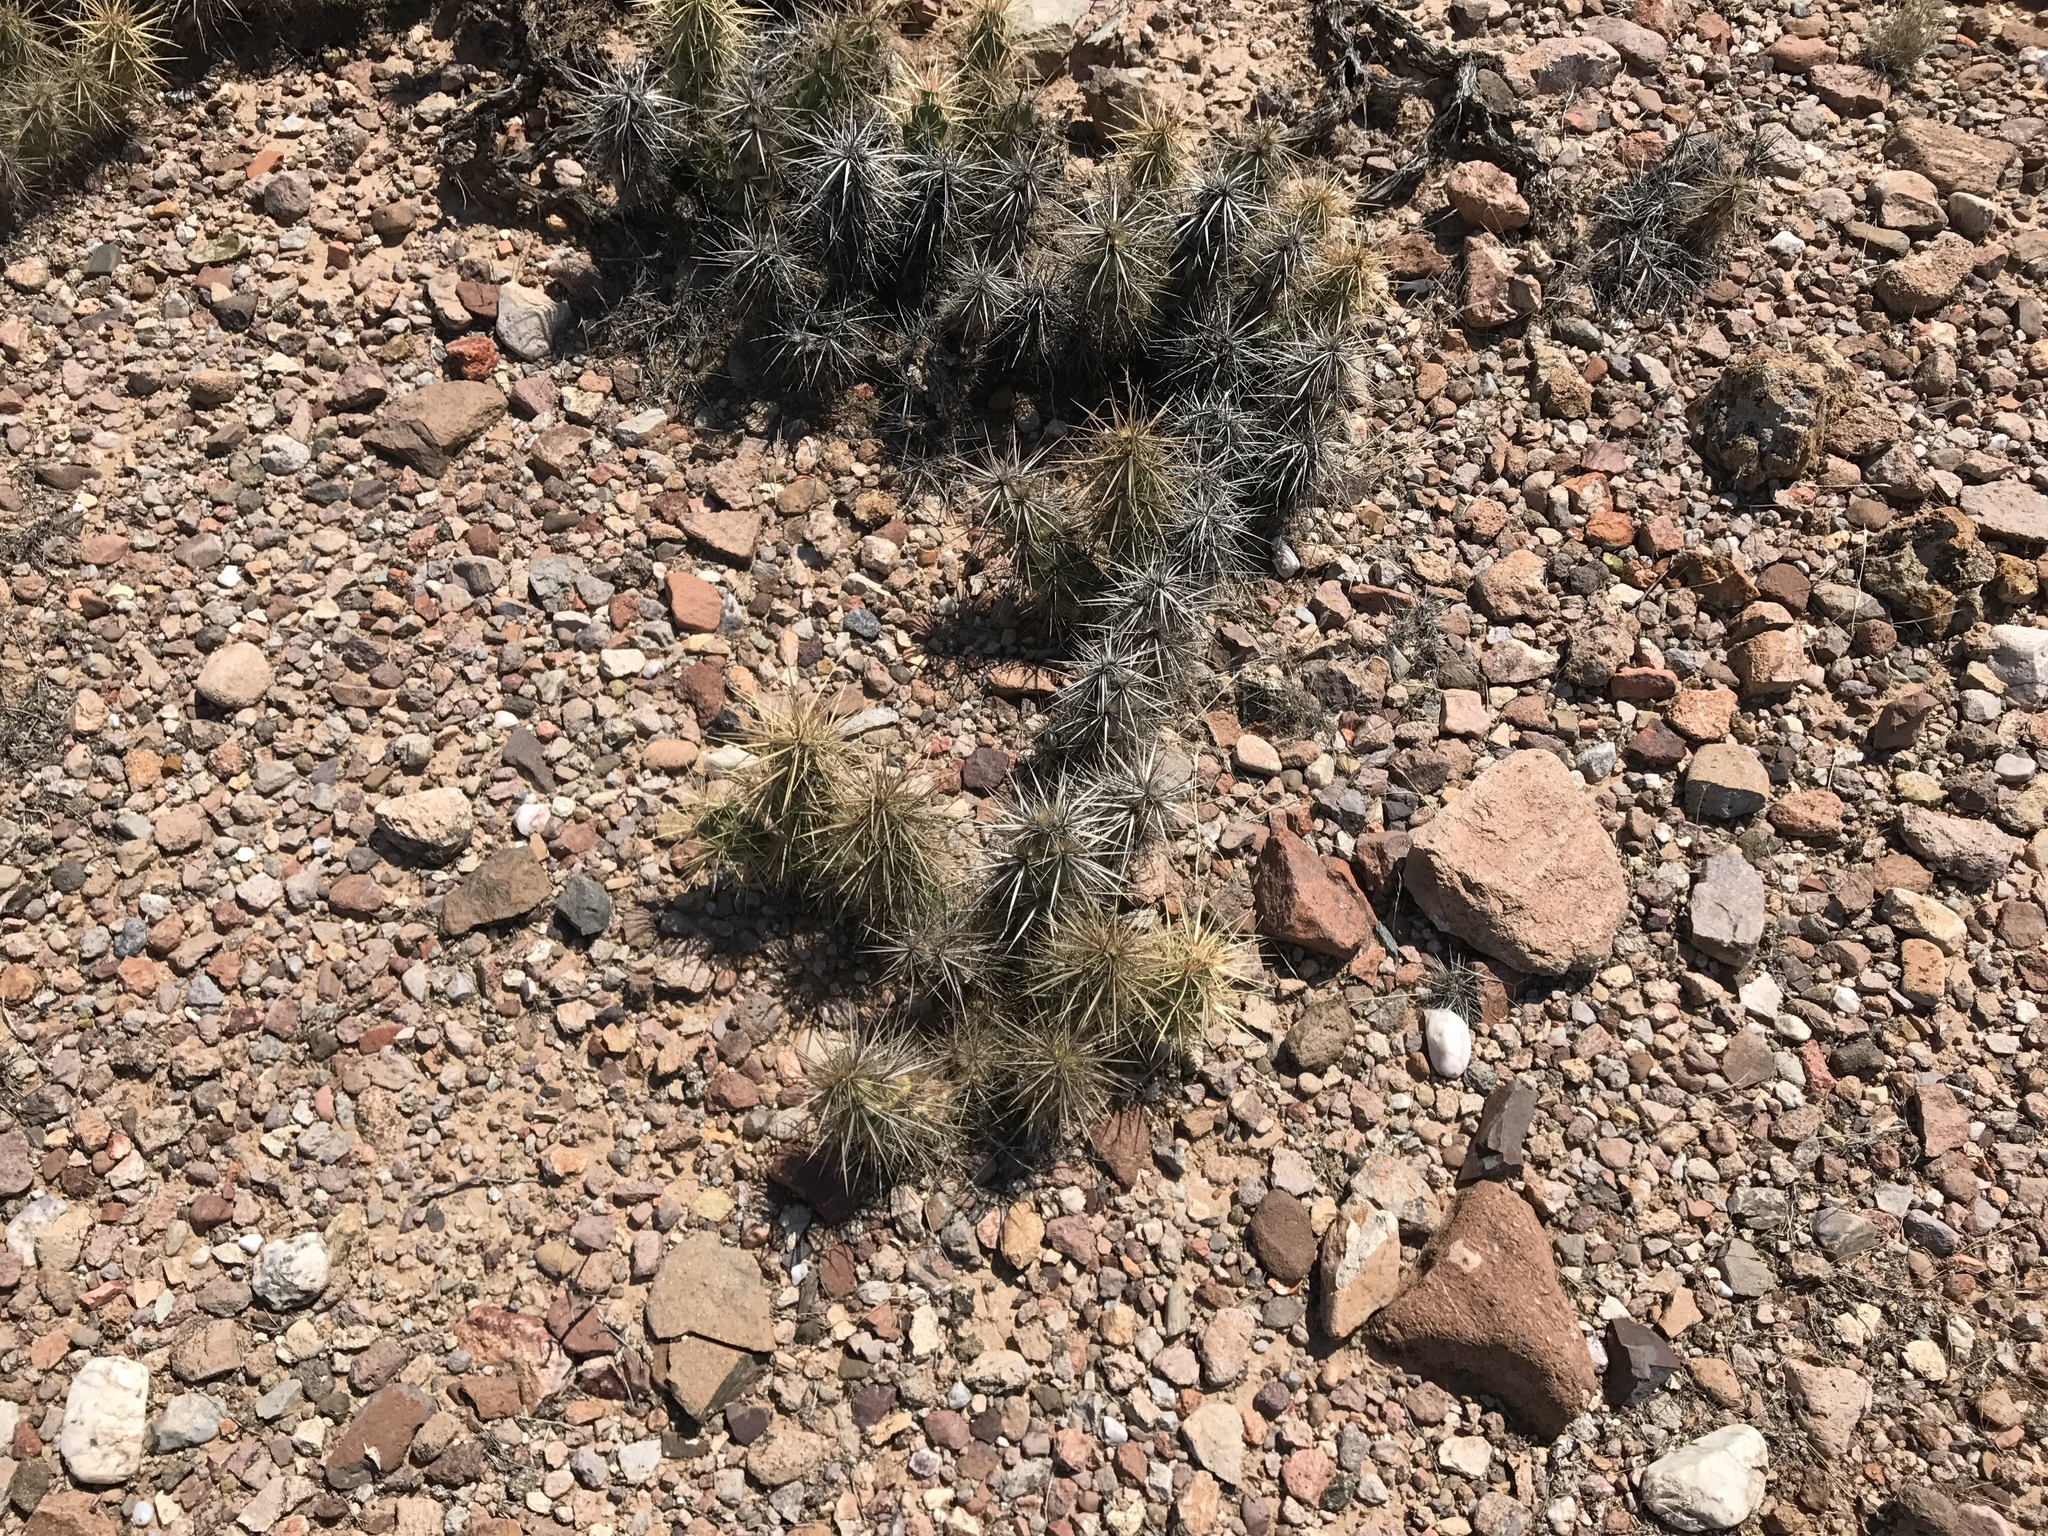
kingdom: Plantae
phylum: Tracheophyta
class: Magnoliopsida
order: Caryophyllales
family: Cactaceae
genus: Grusonia
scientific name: Grusonia emoryi
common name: Stanly's club cholla
